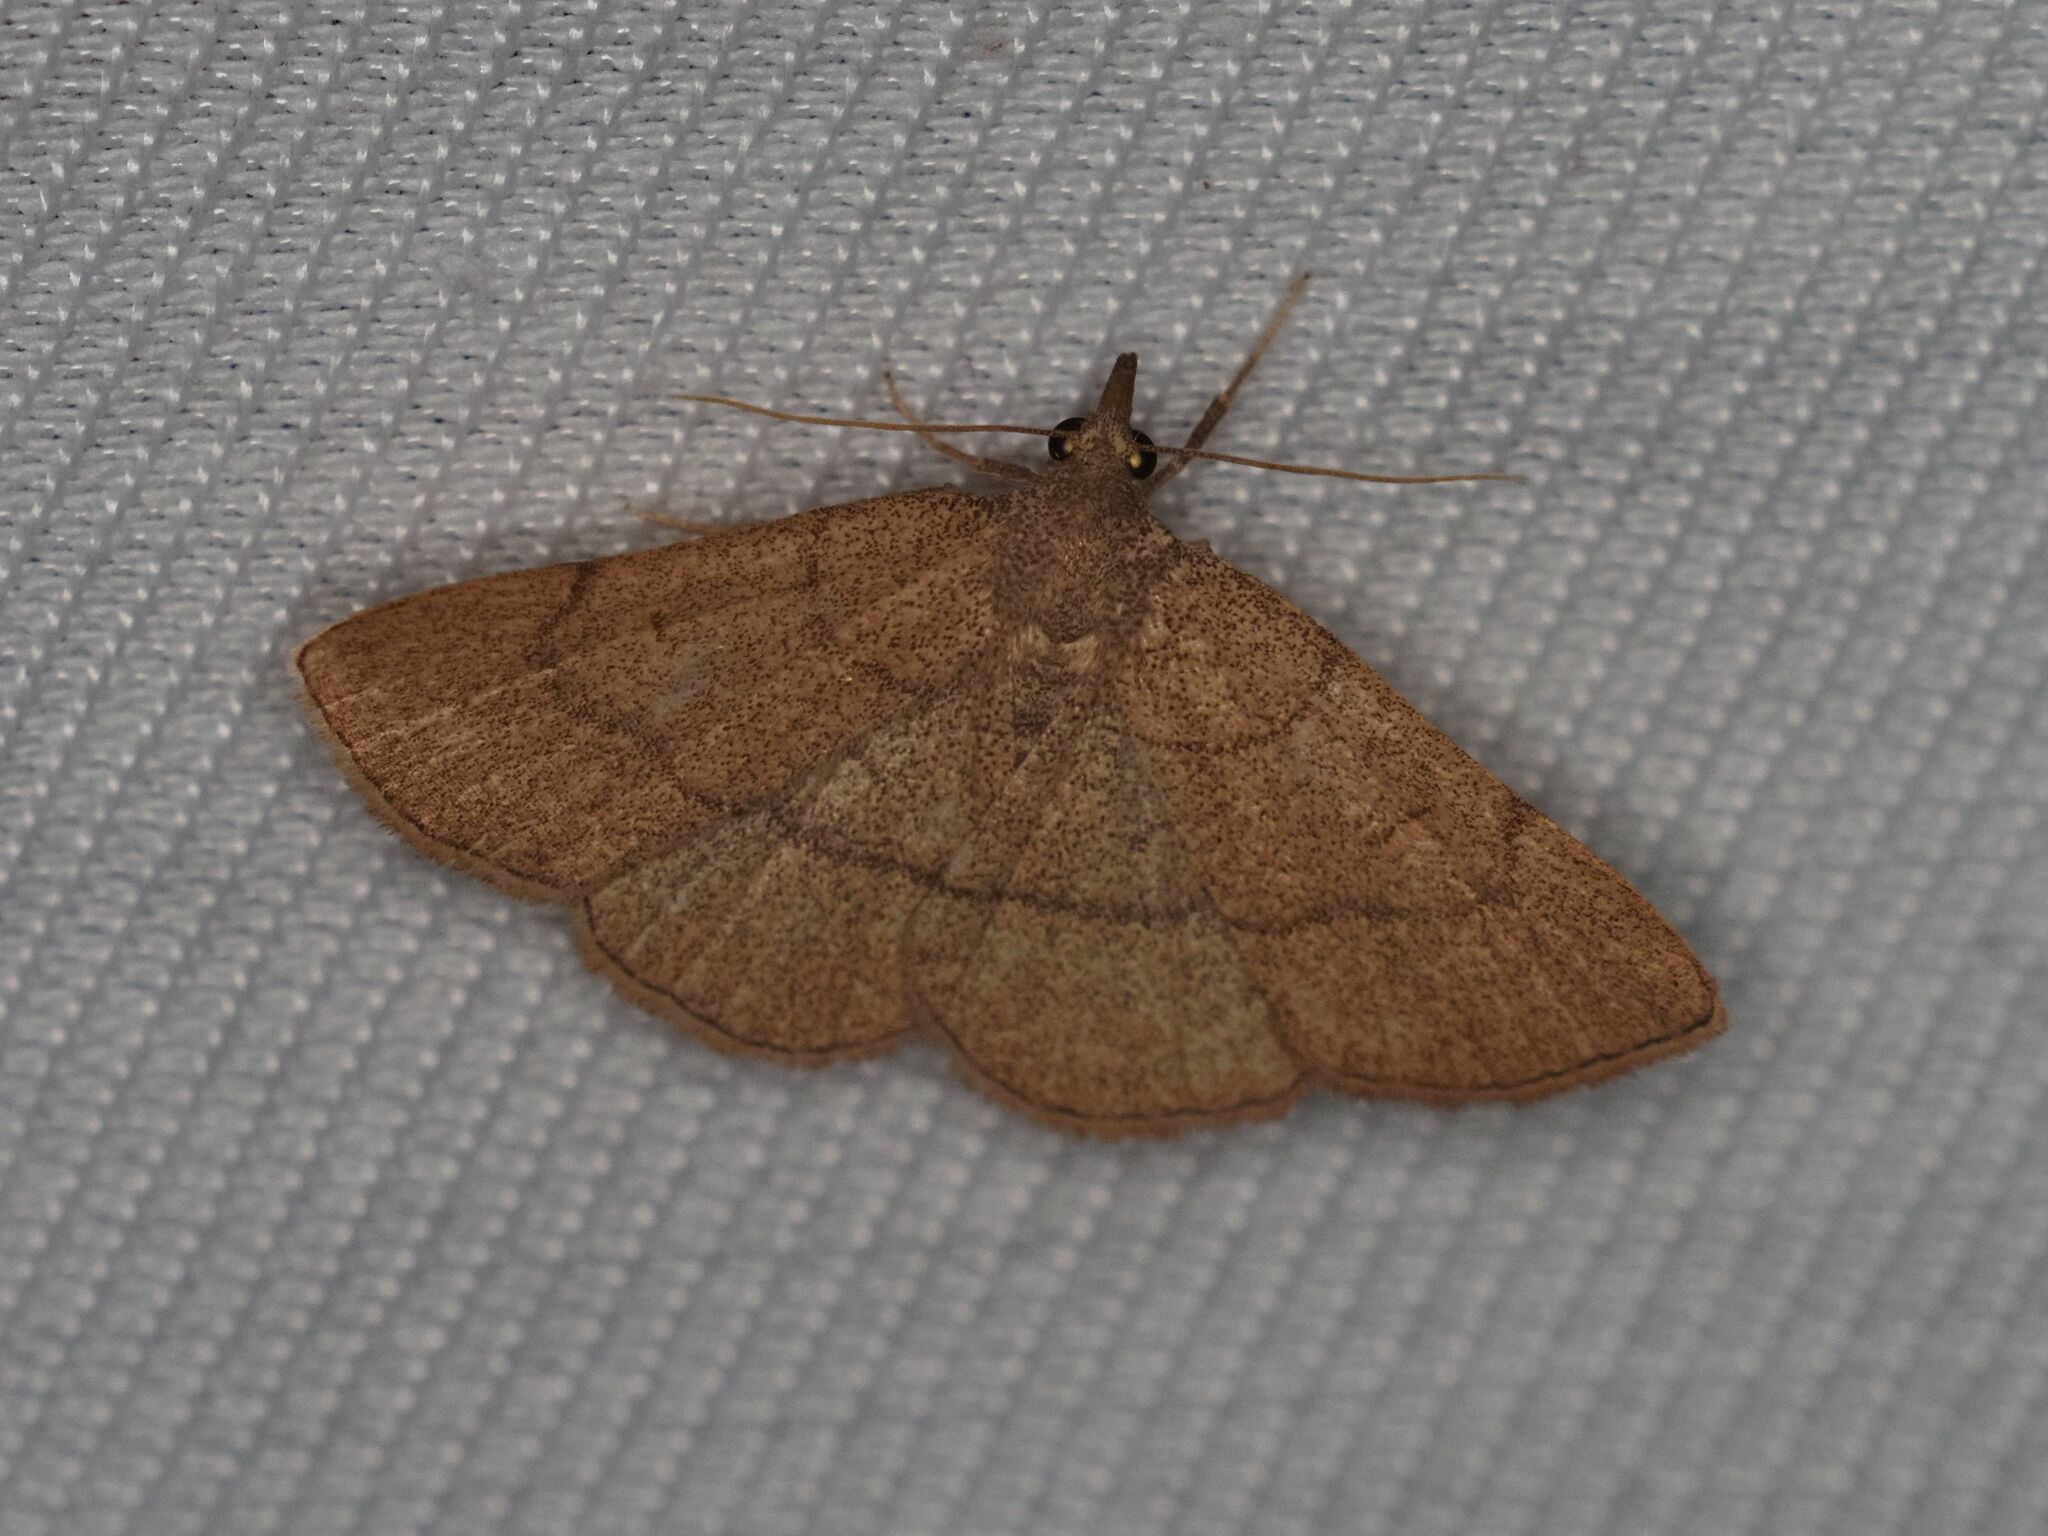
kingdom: Animalia
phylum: Arthropoda
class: Insecta
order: Lepidoptera
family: Erebidae
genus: Paracolax
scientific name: Paracolax tristalis
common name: Clay fan-foot
